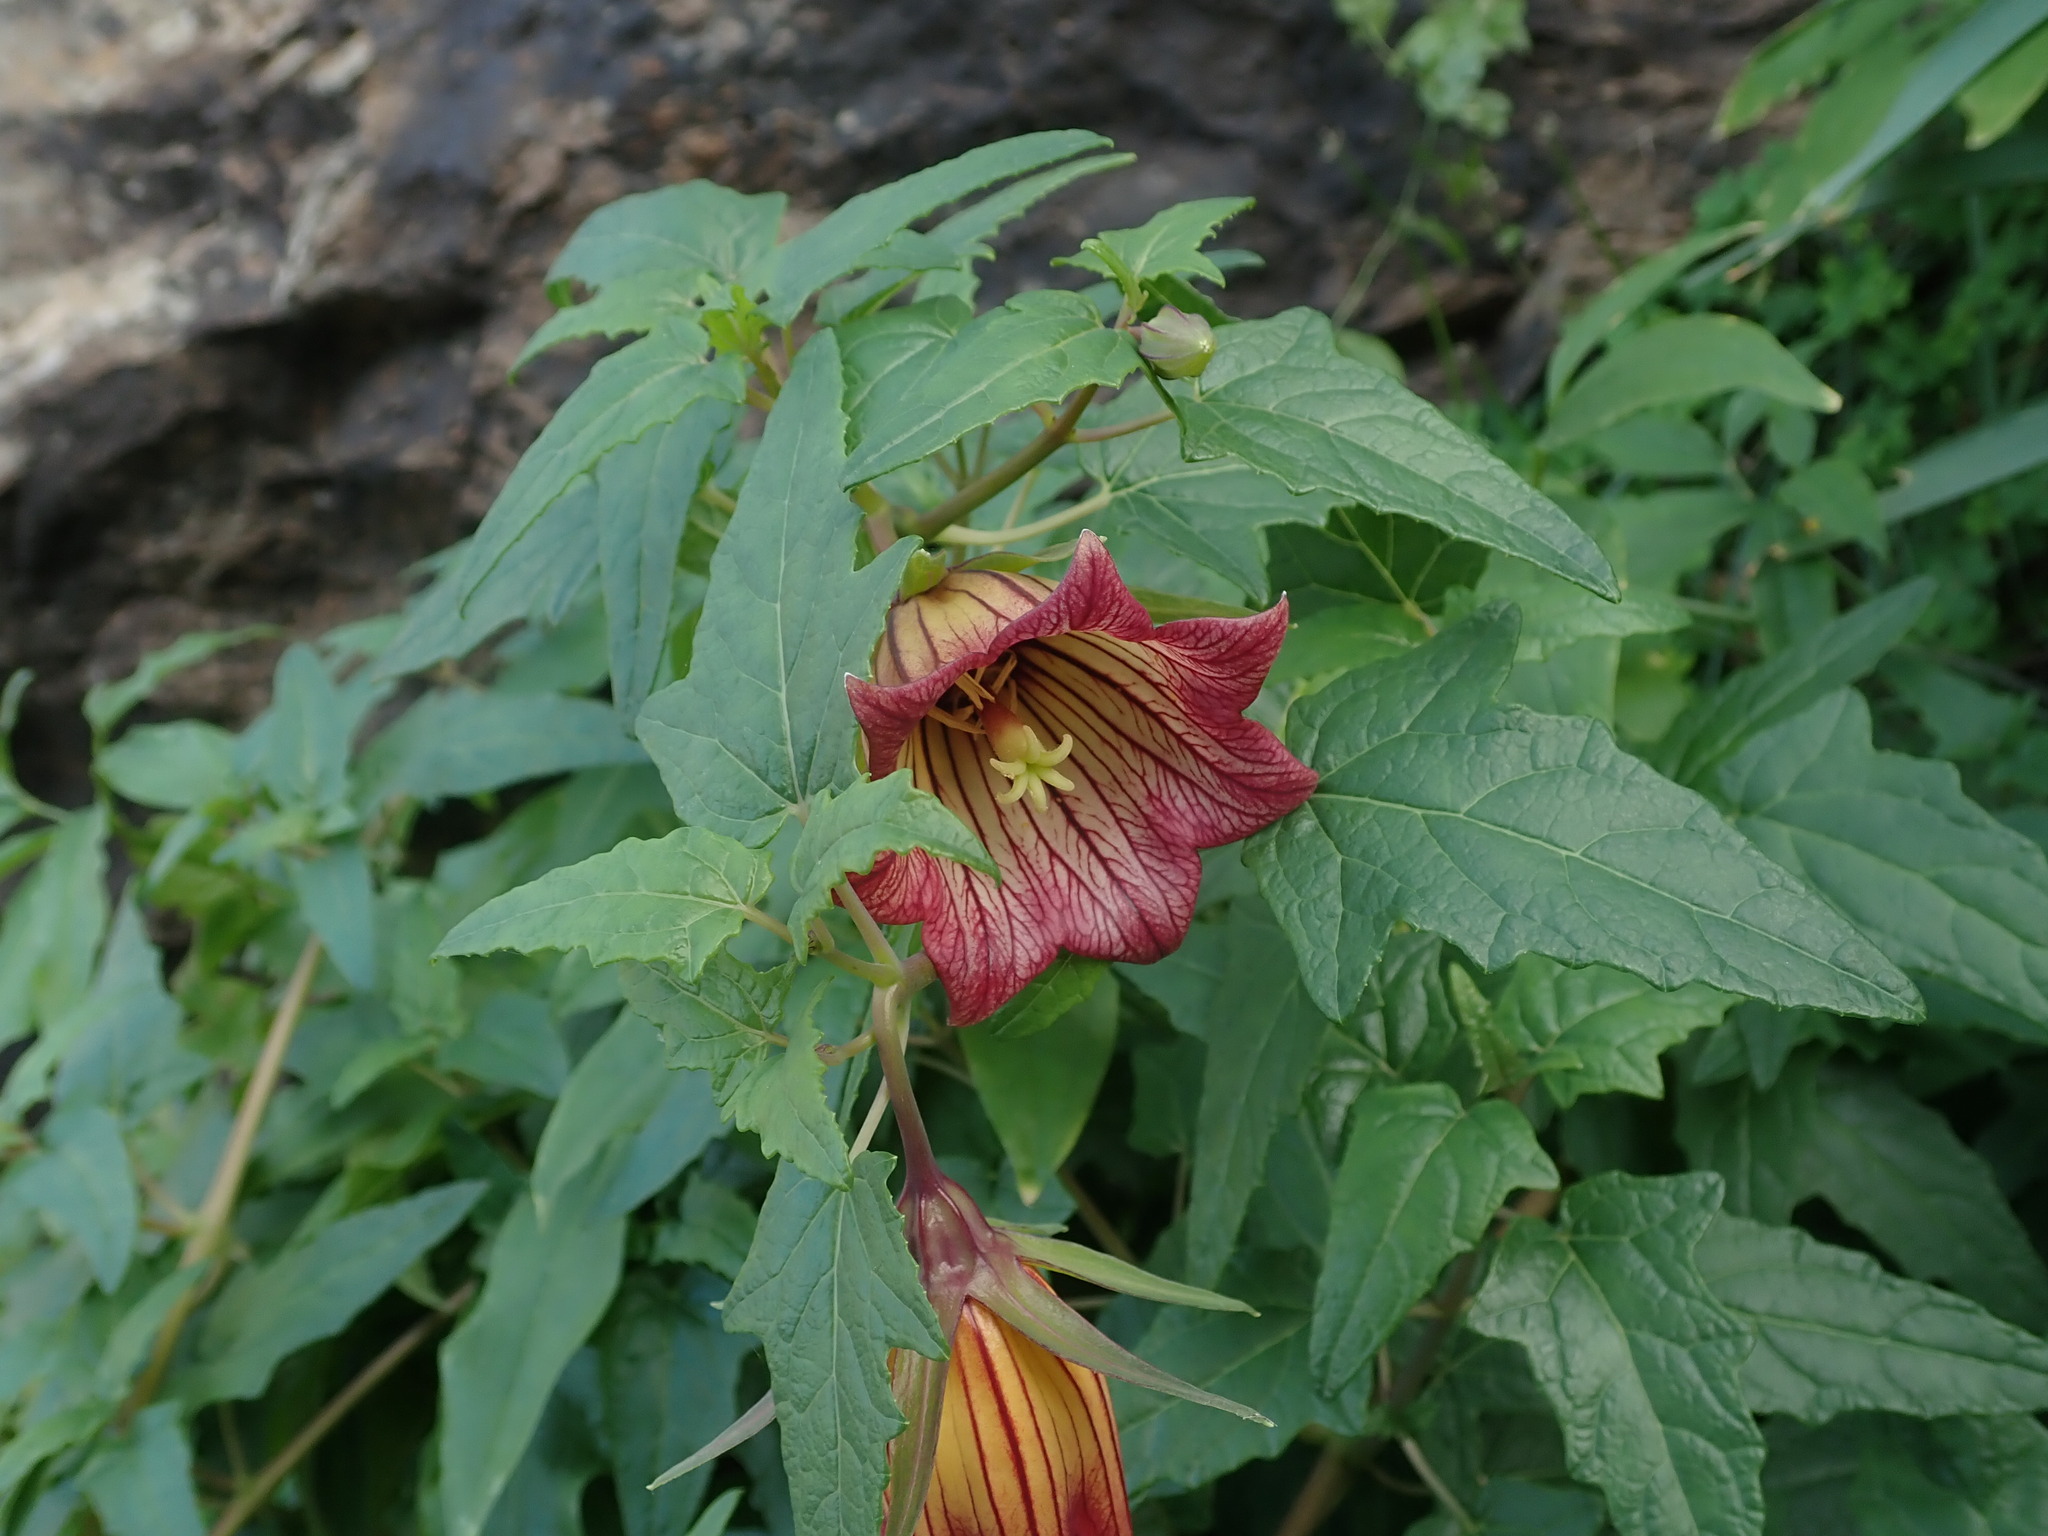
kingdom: Plantae
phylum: Tracheophyta
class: Magnoliopsida
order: Asterales
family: Campanulaceae
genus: Canarina
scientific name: Canarina canariensis
